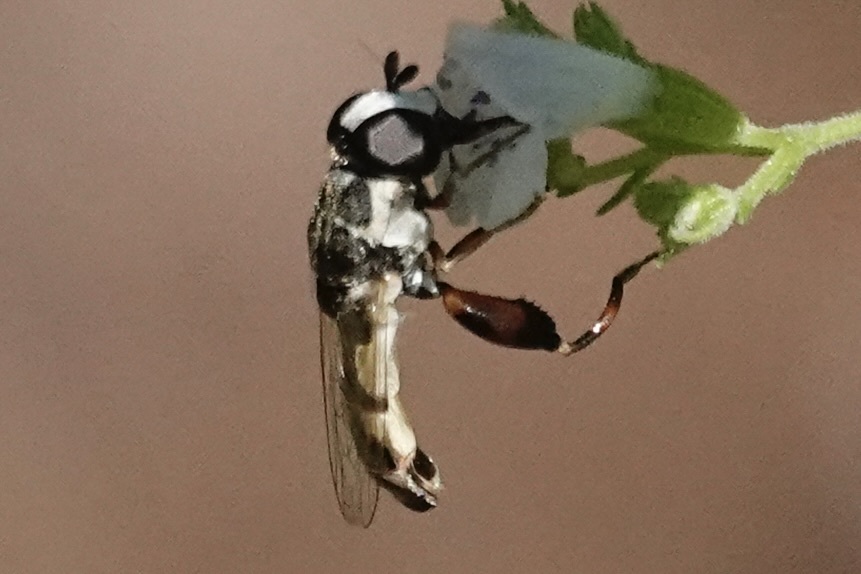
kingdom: Animalia
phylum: Arthropoda
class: Insecta
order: Diptera
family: Syrphidae
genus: Syritta
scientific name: Syritta flaviventris
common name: Syrphid fly
